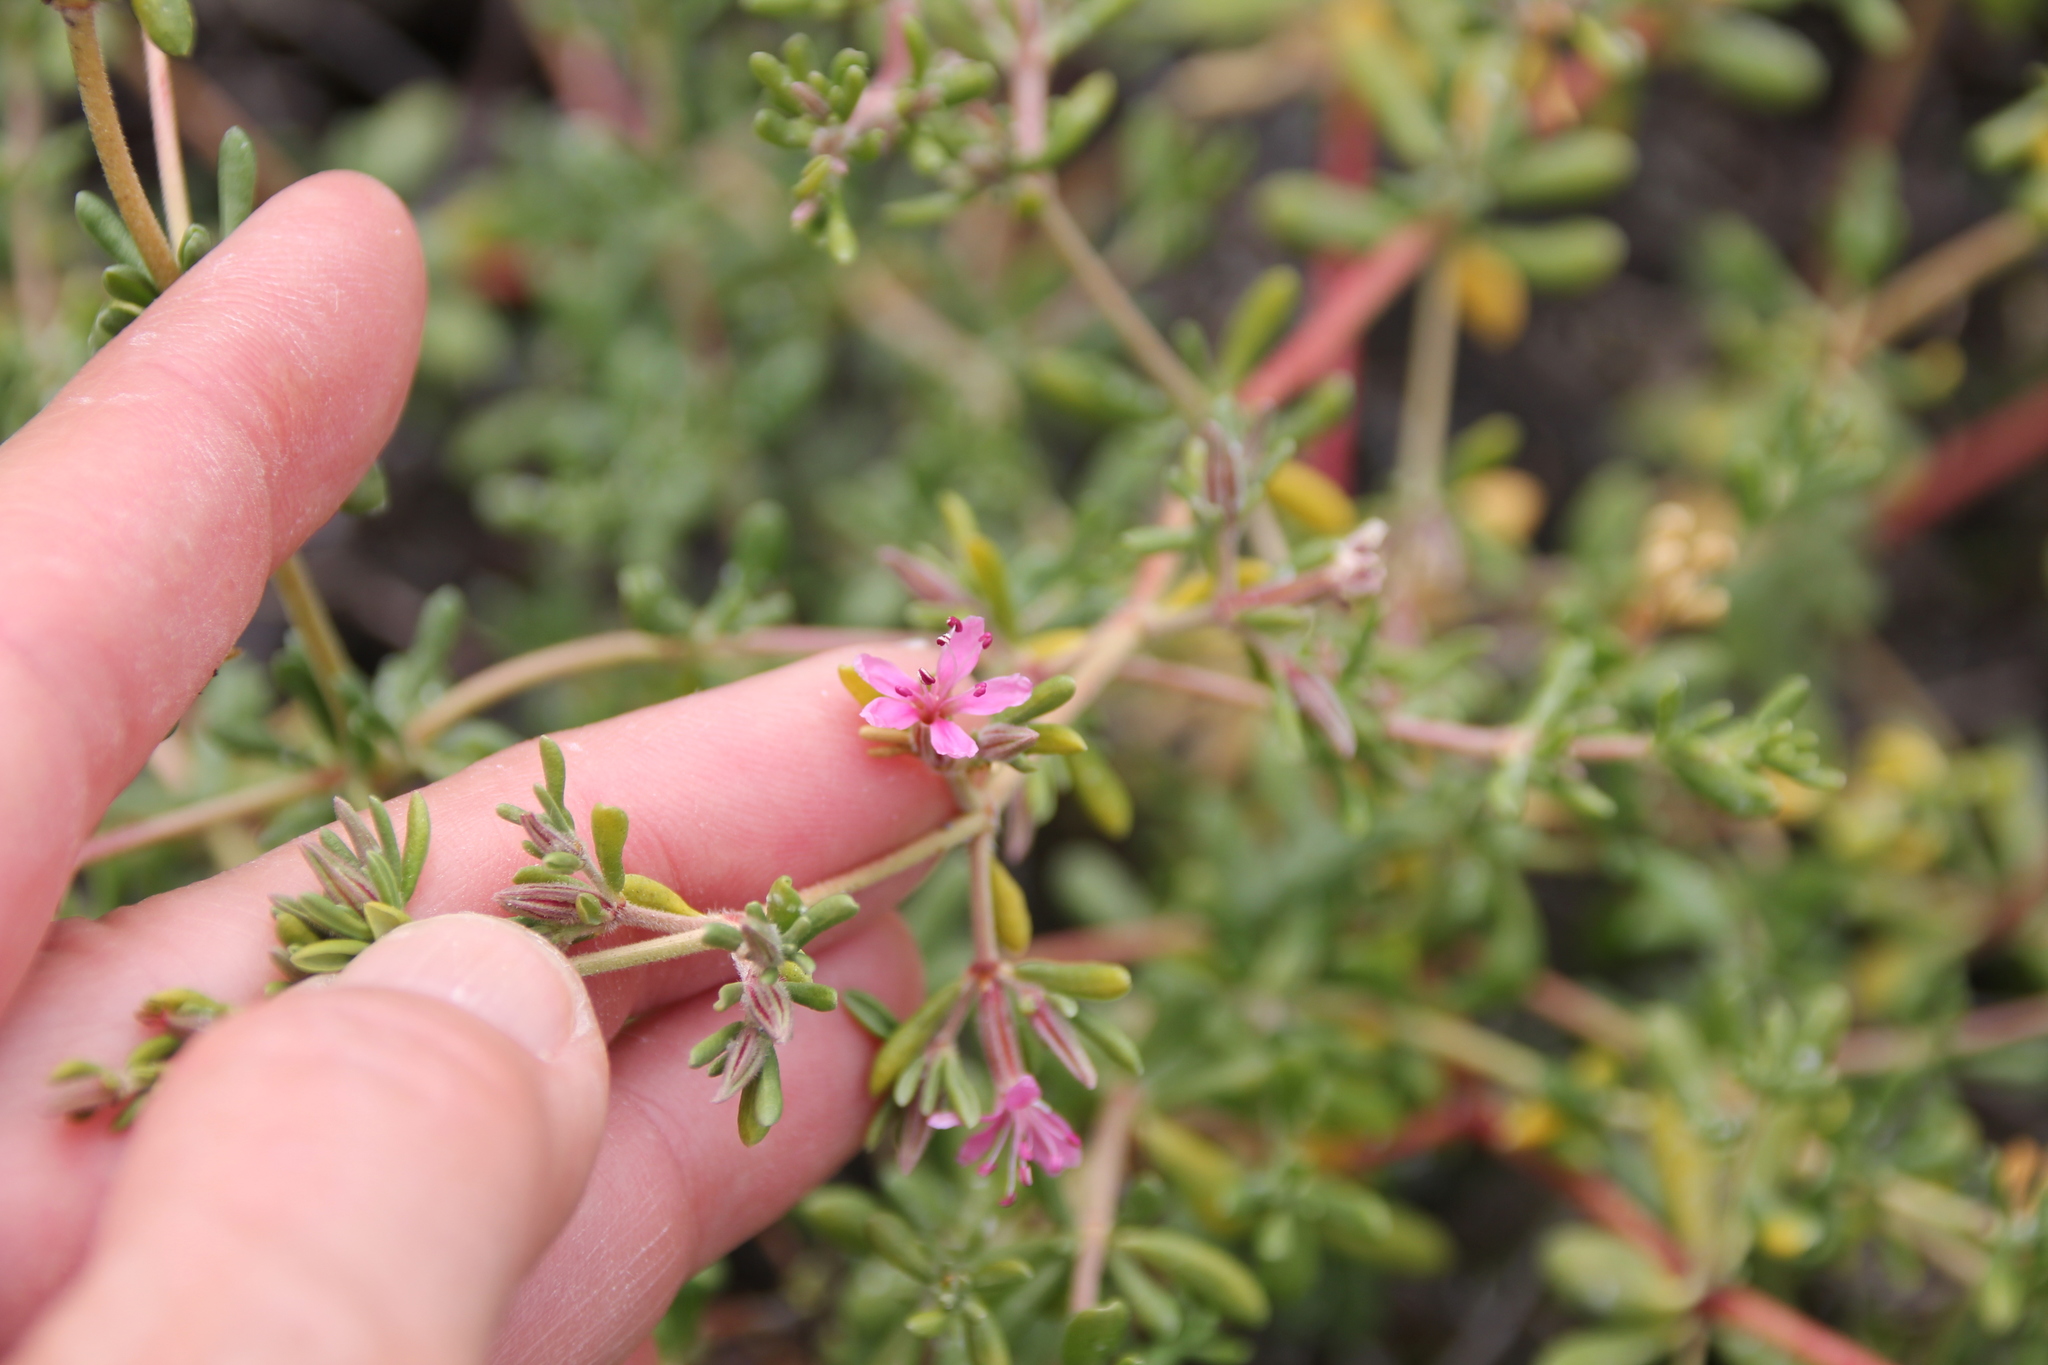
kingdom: Plantae
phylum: Tracheophyta
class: Magnoliopsida
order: Caryophyllales
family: Frankeniaceae
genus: Frankenia
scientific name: Frankenia salina
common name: Alkali seaheath
